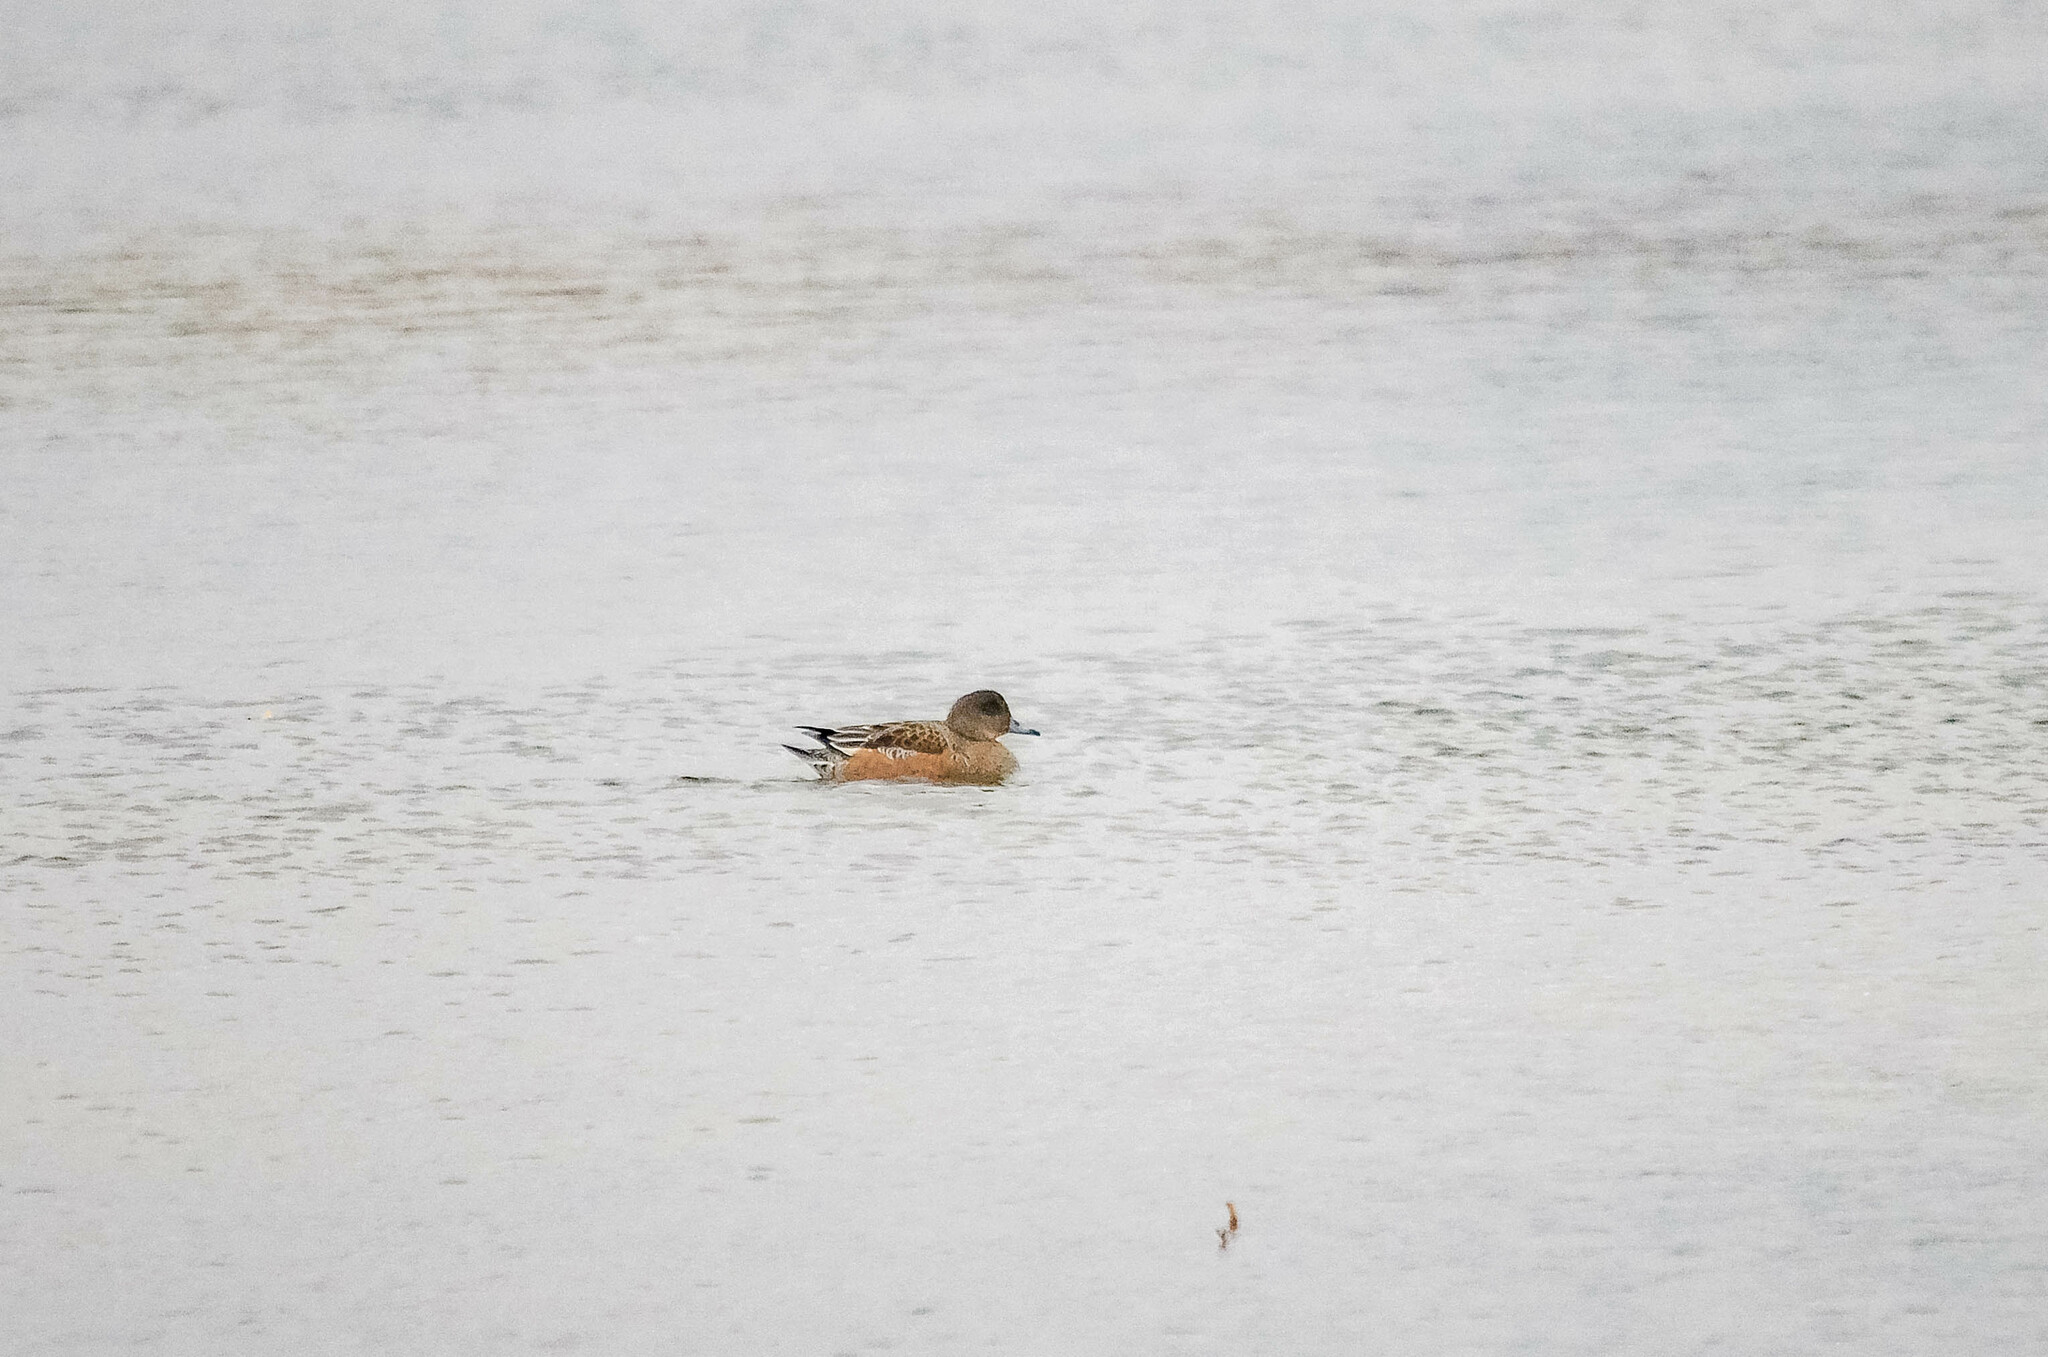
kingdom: Animalia
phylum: Chordata
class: Aves
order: Anseriformes
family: Anatidae
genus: Mareca
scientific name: Mareca penelope
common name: Eurasian wigeon
